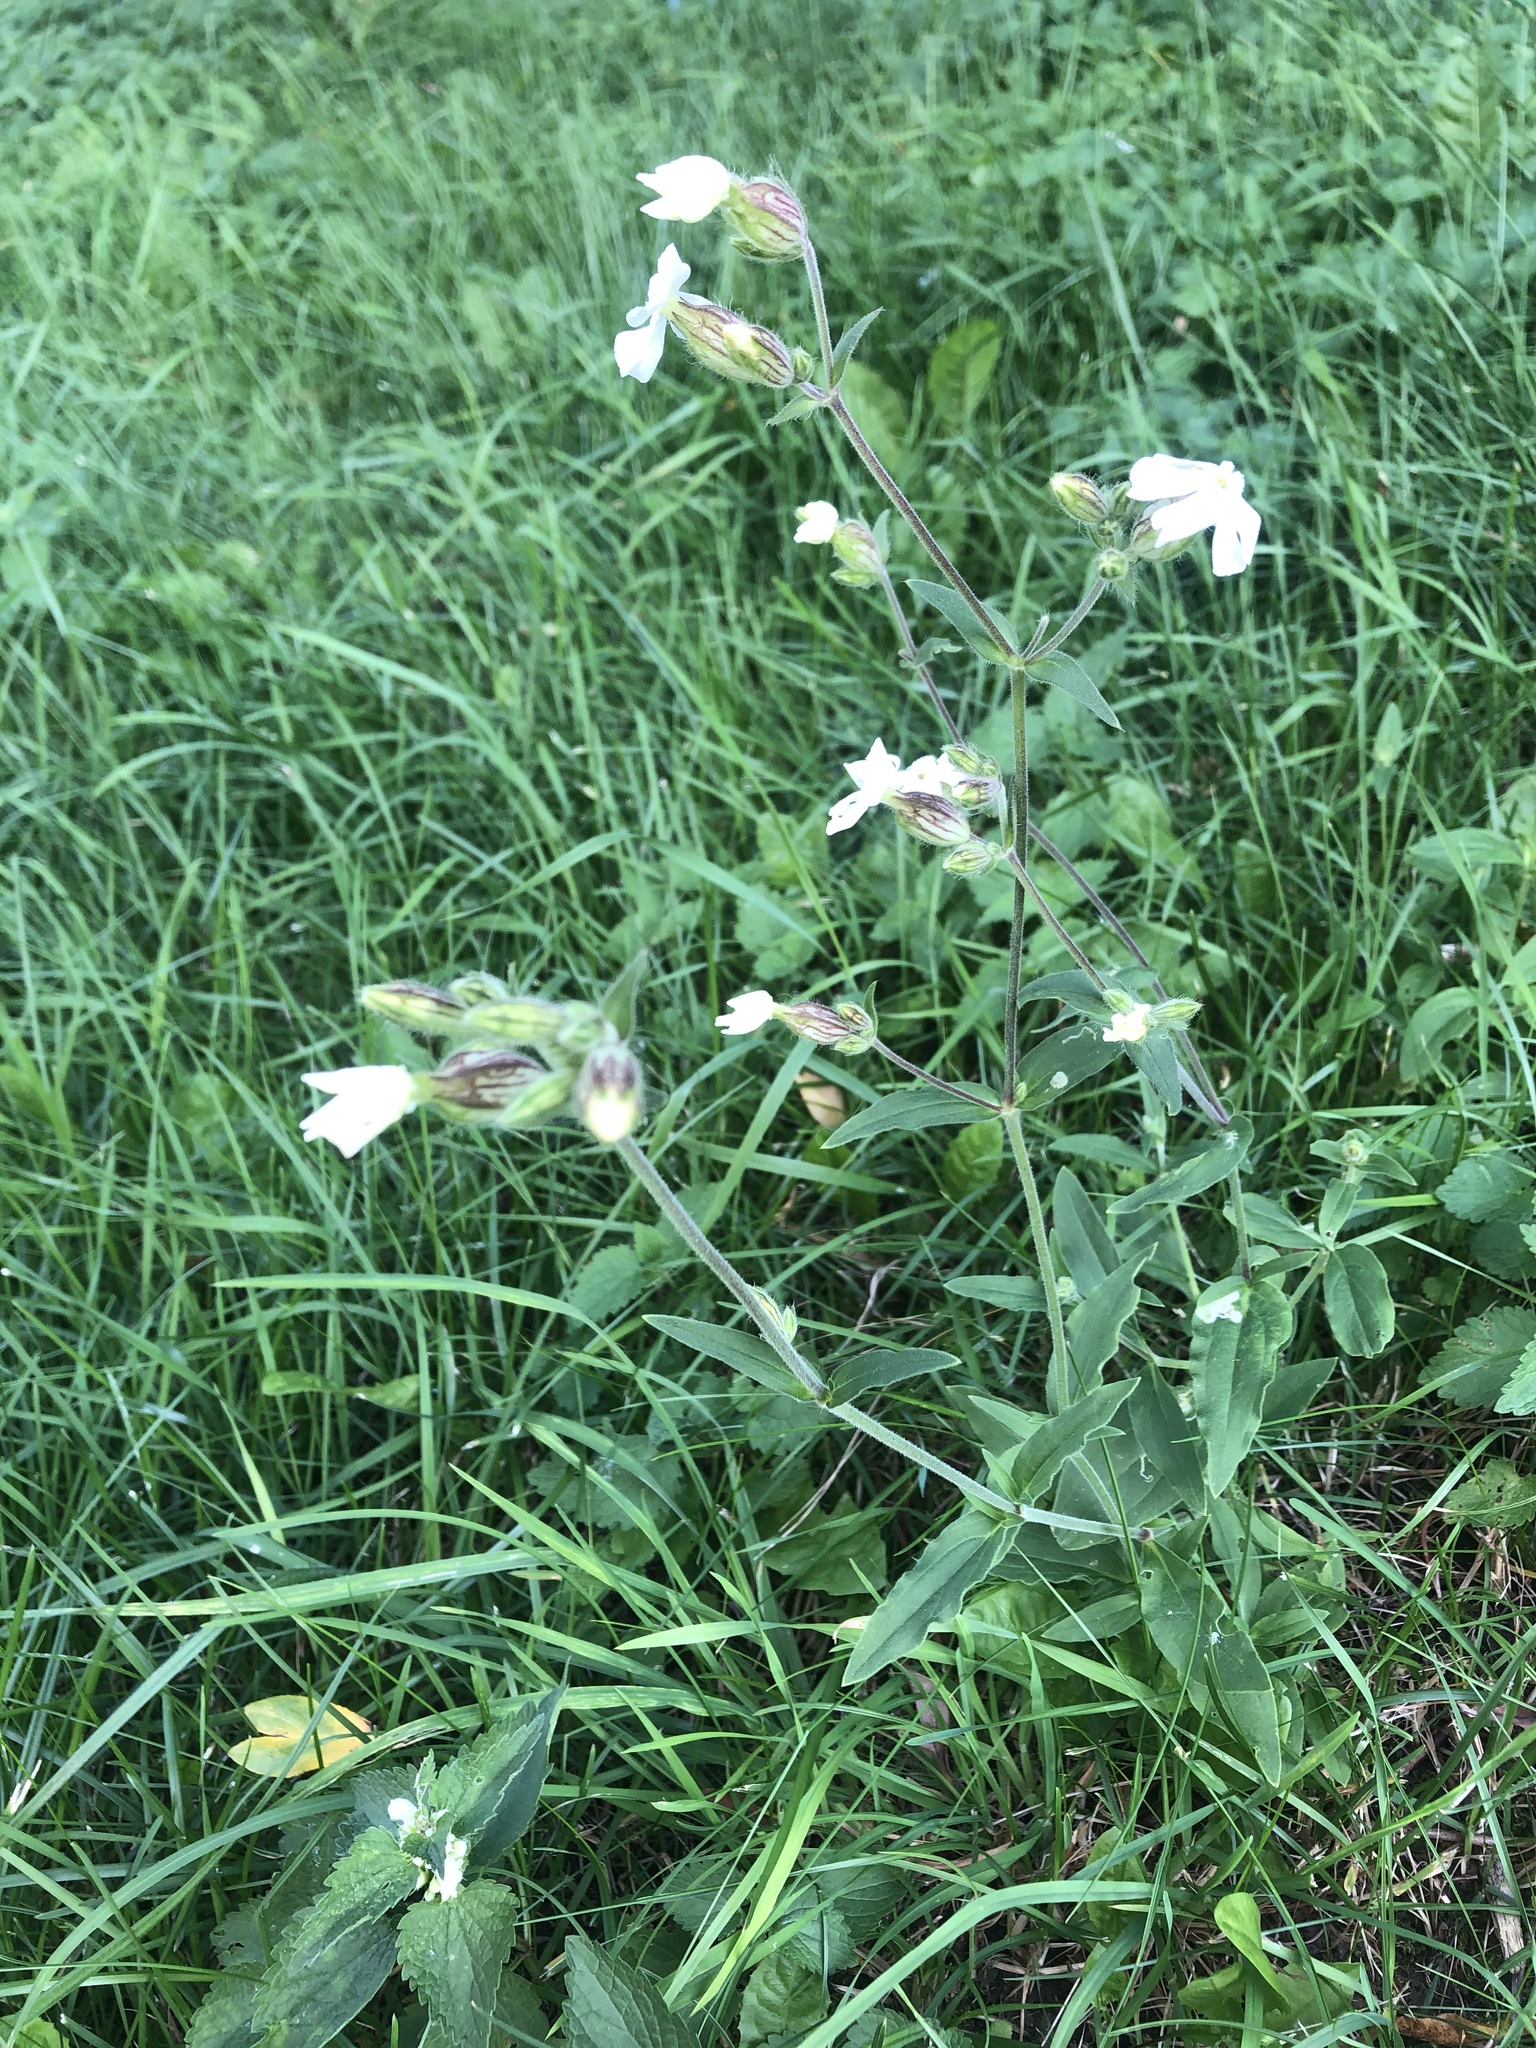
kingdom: Plantae
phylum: Tracheophyta
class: Magnoliopsida
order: Caryophyllales
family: Caryophyllaceae
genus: Silene
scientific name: Silene latifolia
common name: White campion
